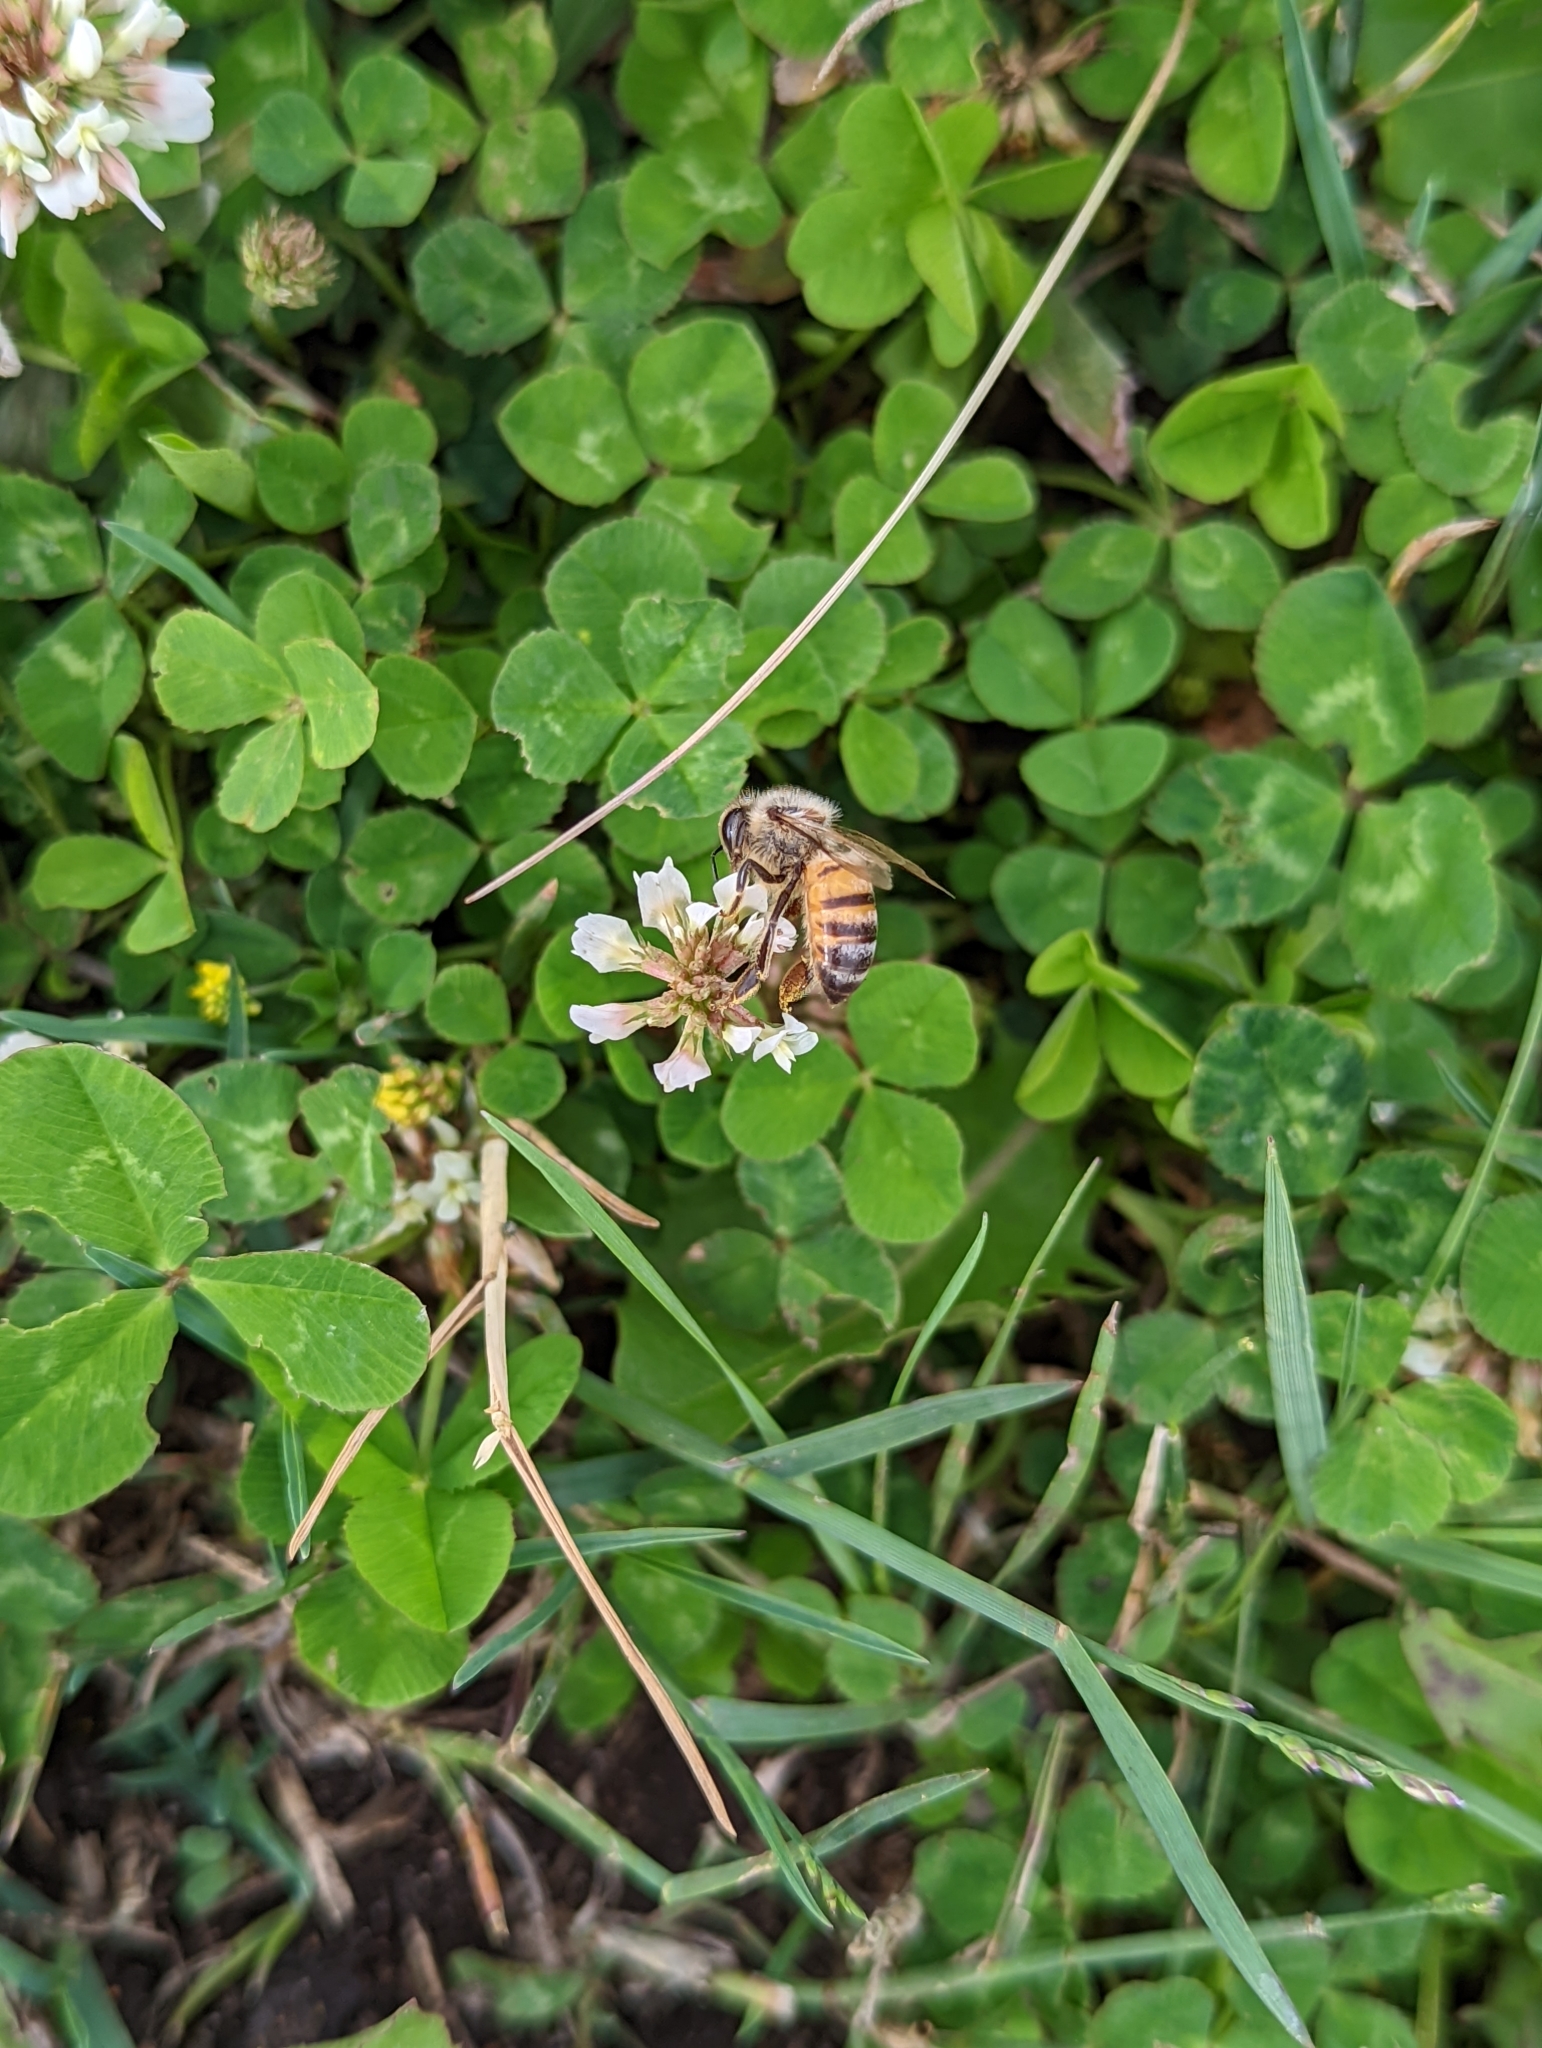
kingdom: Animalia
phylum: Arthropoda
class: Insecta
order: Hymenoptera
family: Apidae
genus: Apis
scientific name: Apis mellifera
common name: Honey bee
